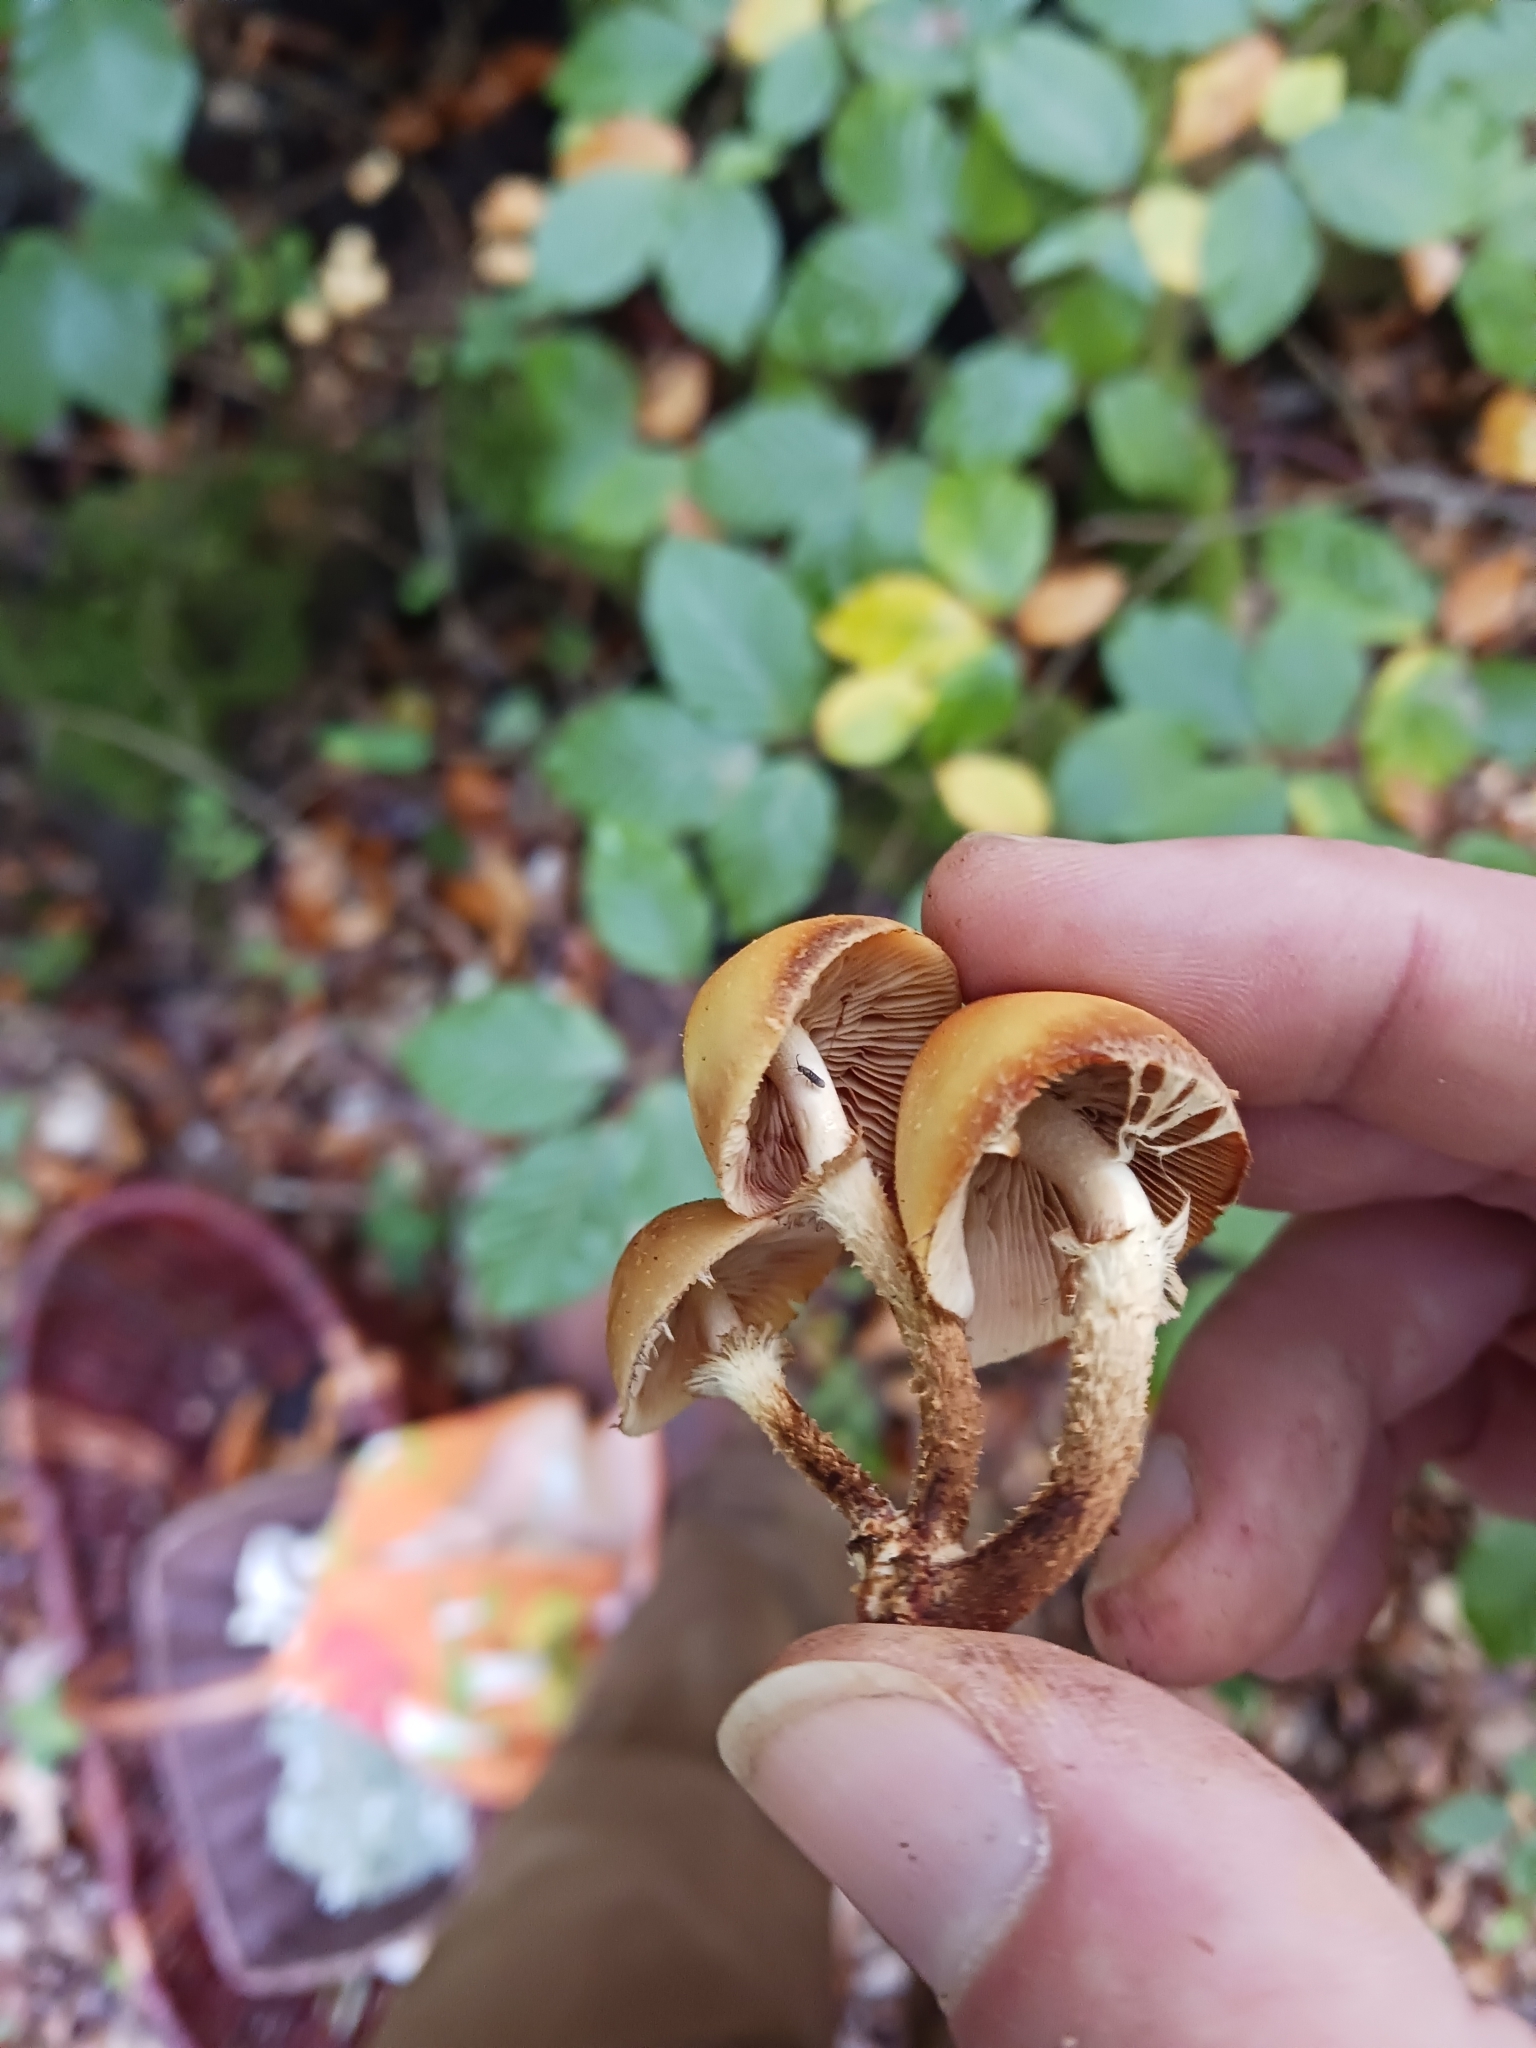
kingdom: Fungi
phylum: Basidiomycota
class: Agaricomycetes
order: Agaricales
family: Strophariaceae
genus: Kuehneromyces
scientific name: Kuehneromyces mutabilis
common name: Sheathed woodtuft
